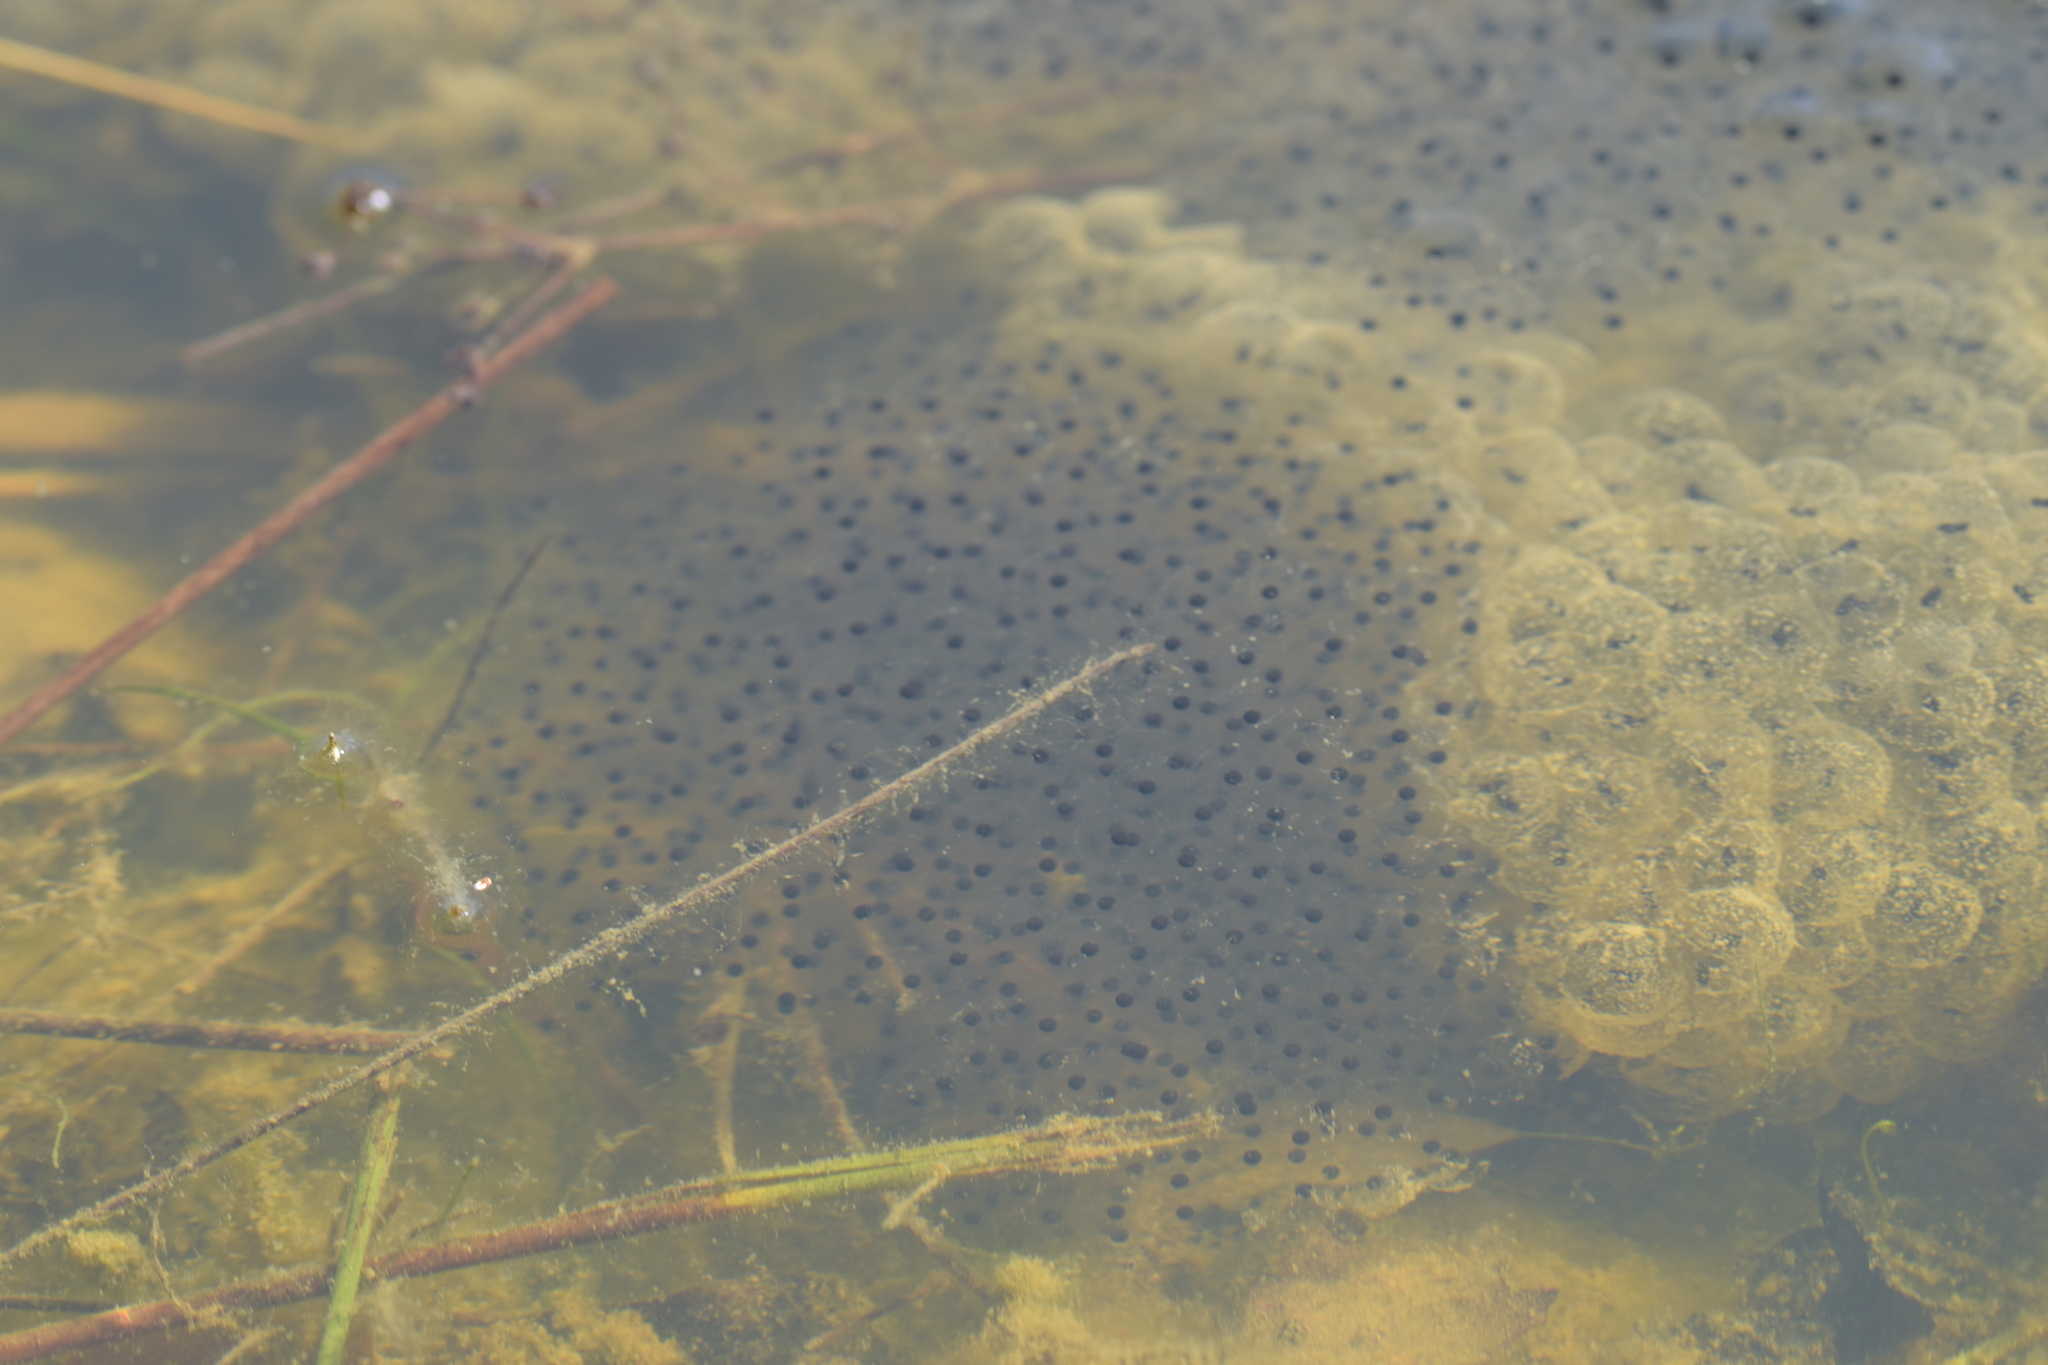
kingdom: Animalia
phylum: Chordata
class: Amphibia
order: Anura
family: Ranidae
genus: Rana
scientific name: Rana
